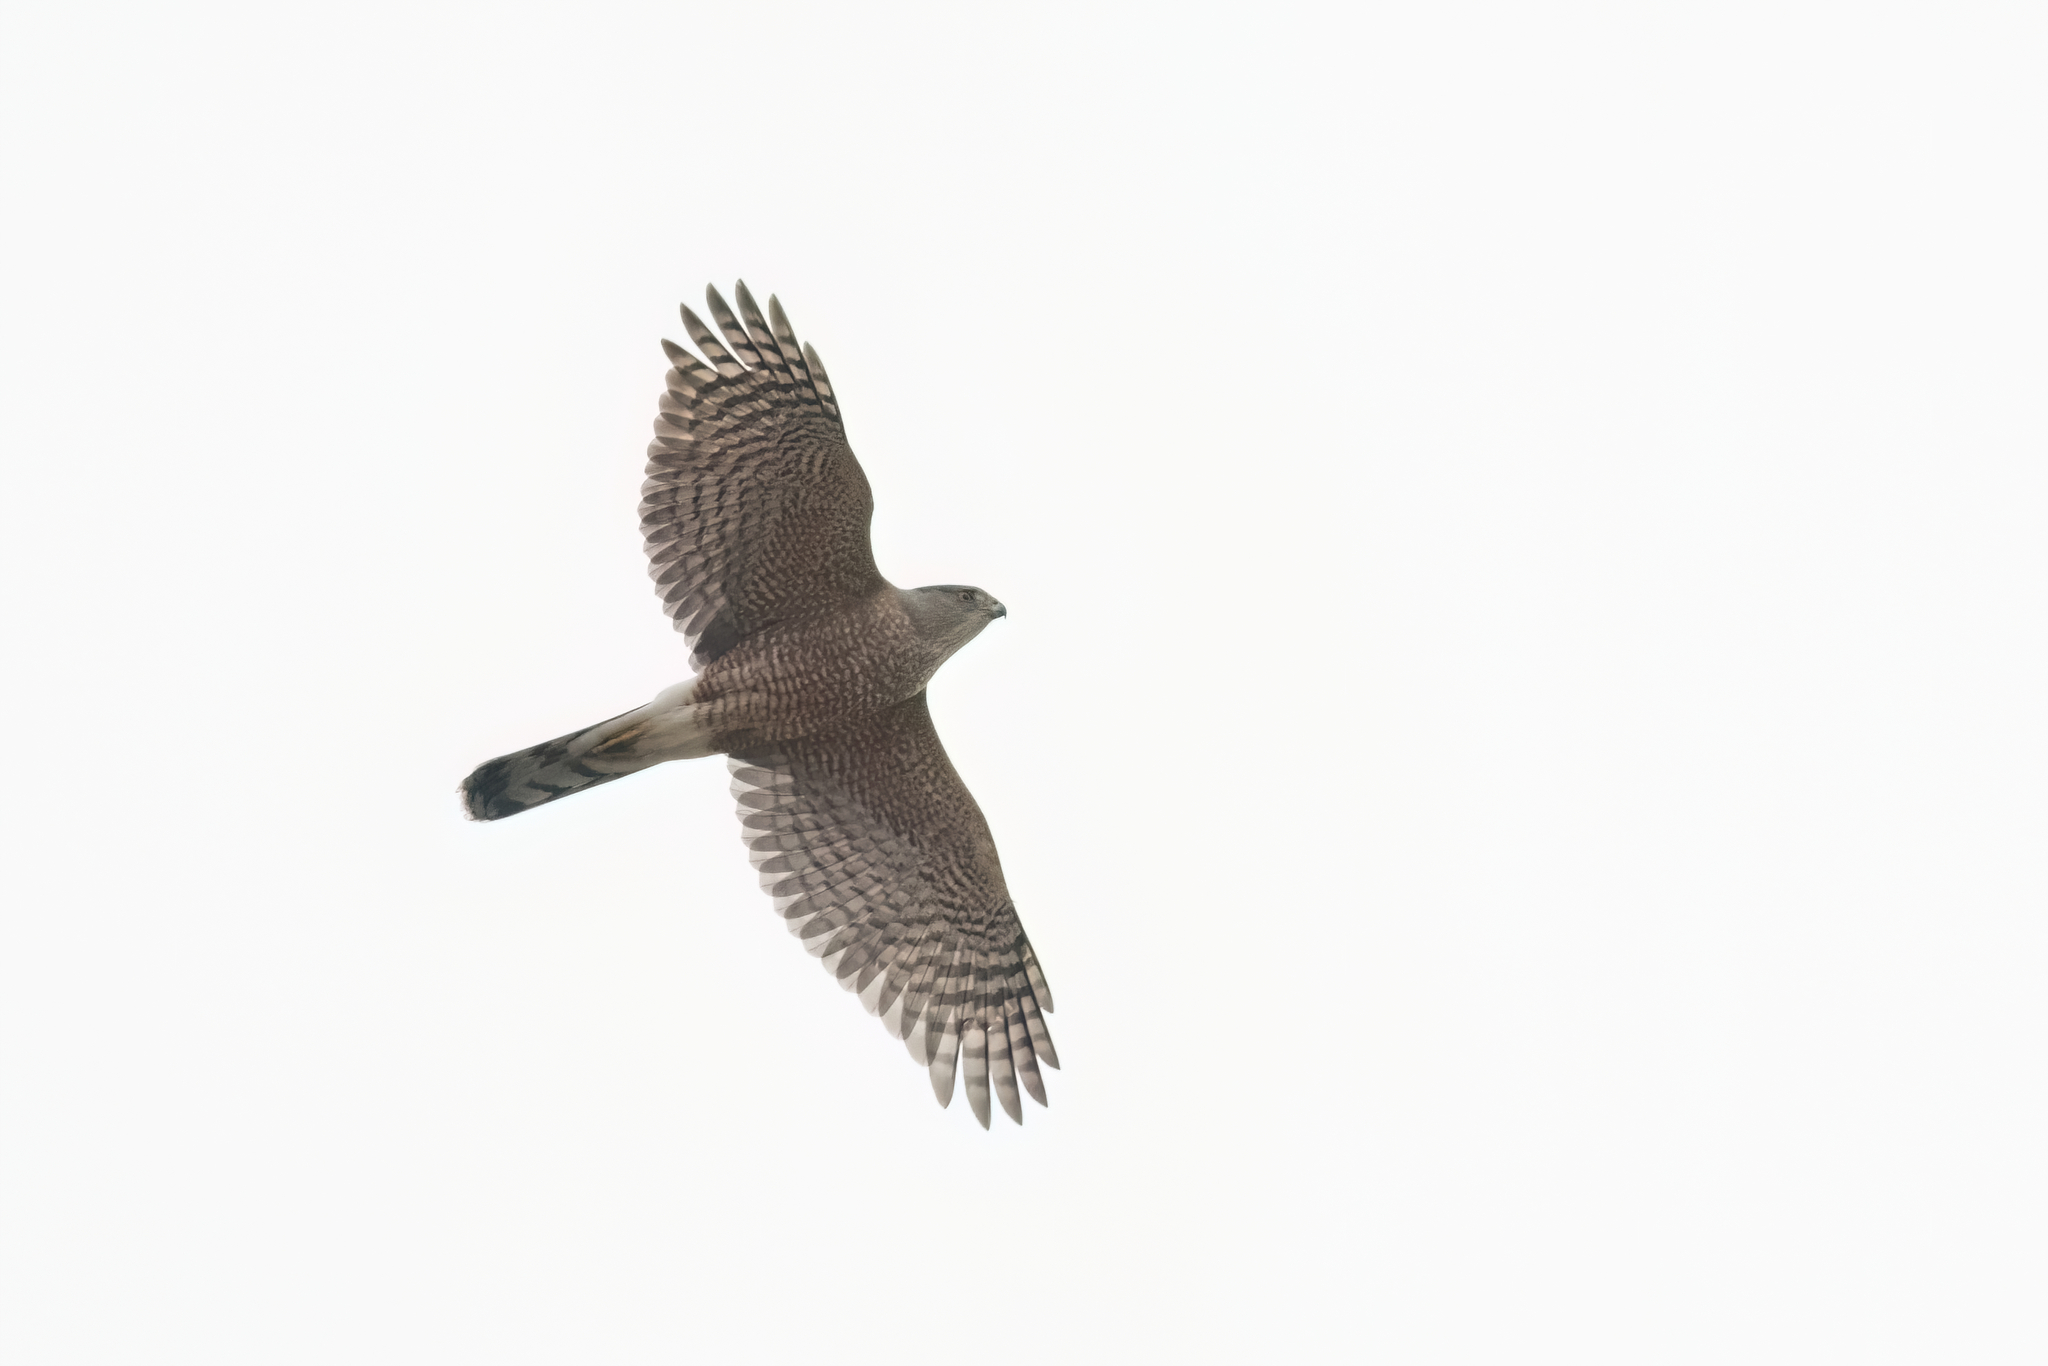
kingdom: Animalia
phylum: Chordata
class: Aves
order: Accipitriformes
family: Accipitridae
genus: Accipiter
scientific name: Accipiter cooperii
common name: Cooper's hawk
